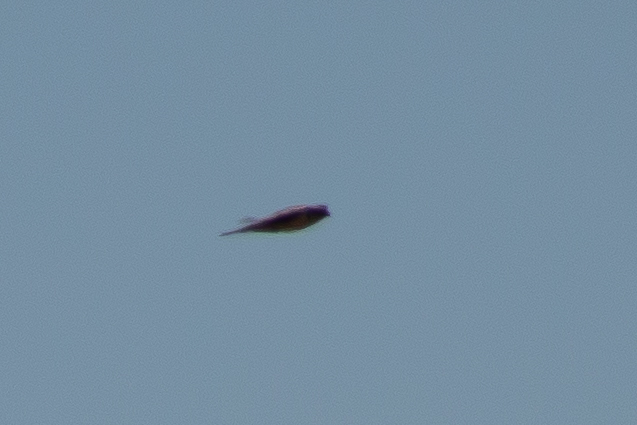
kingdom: Animalia
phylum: Chordata
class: Aves
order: Falconiformes
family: Falconidae
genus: Falco
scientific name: Falco mexicanus
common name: Prairie falcon
